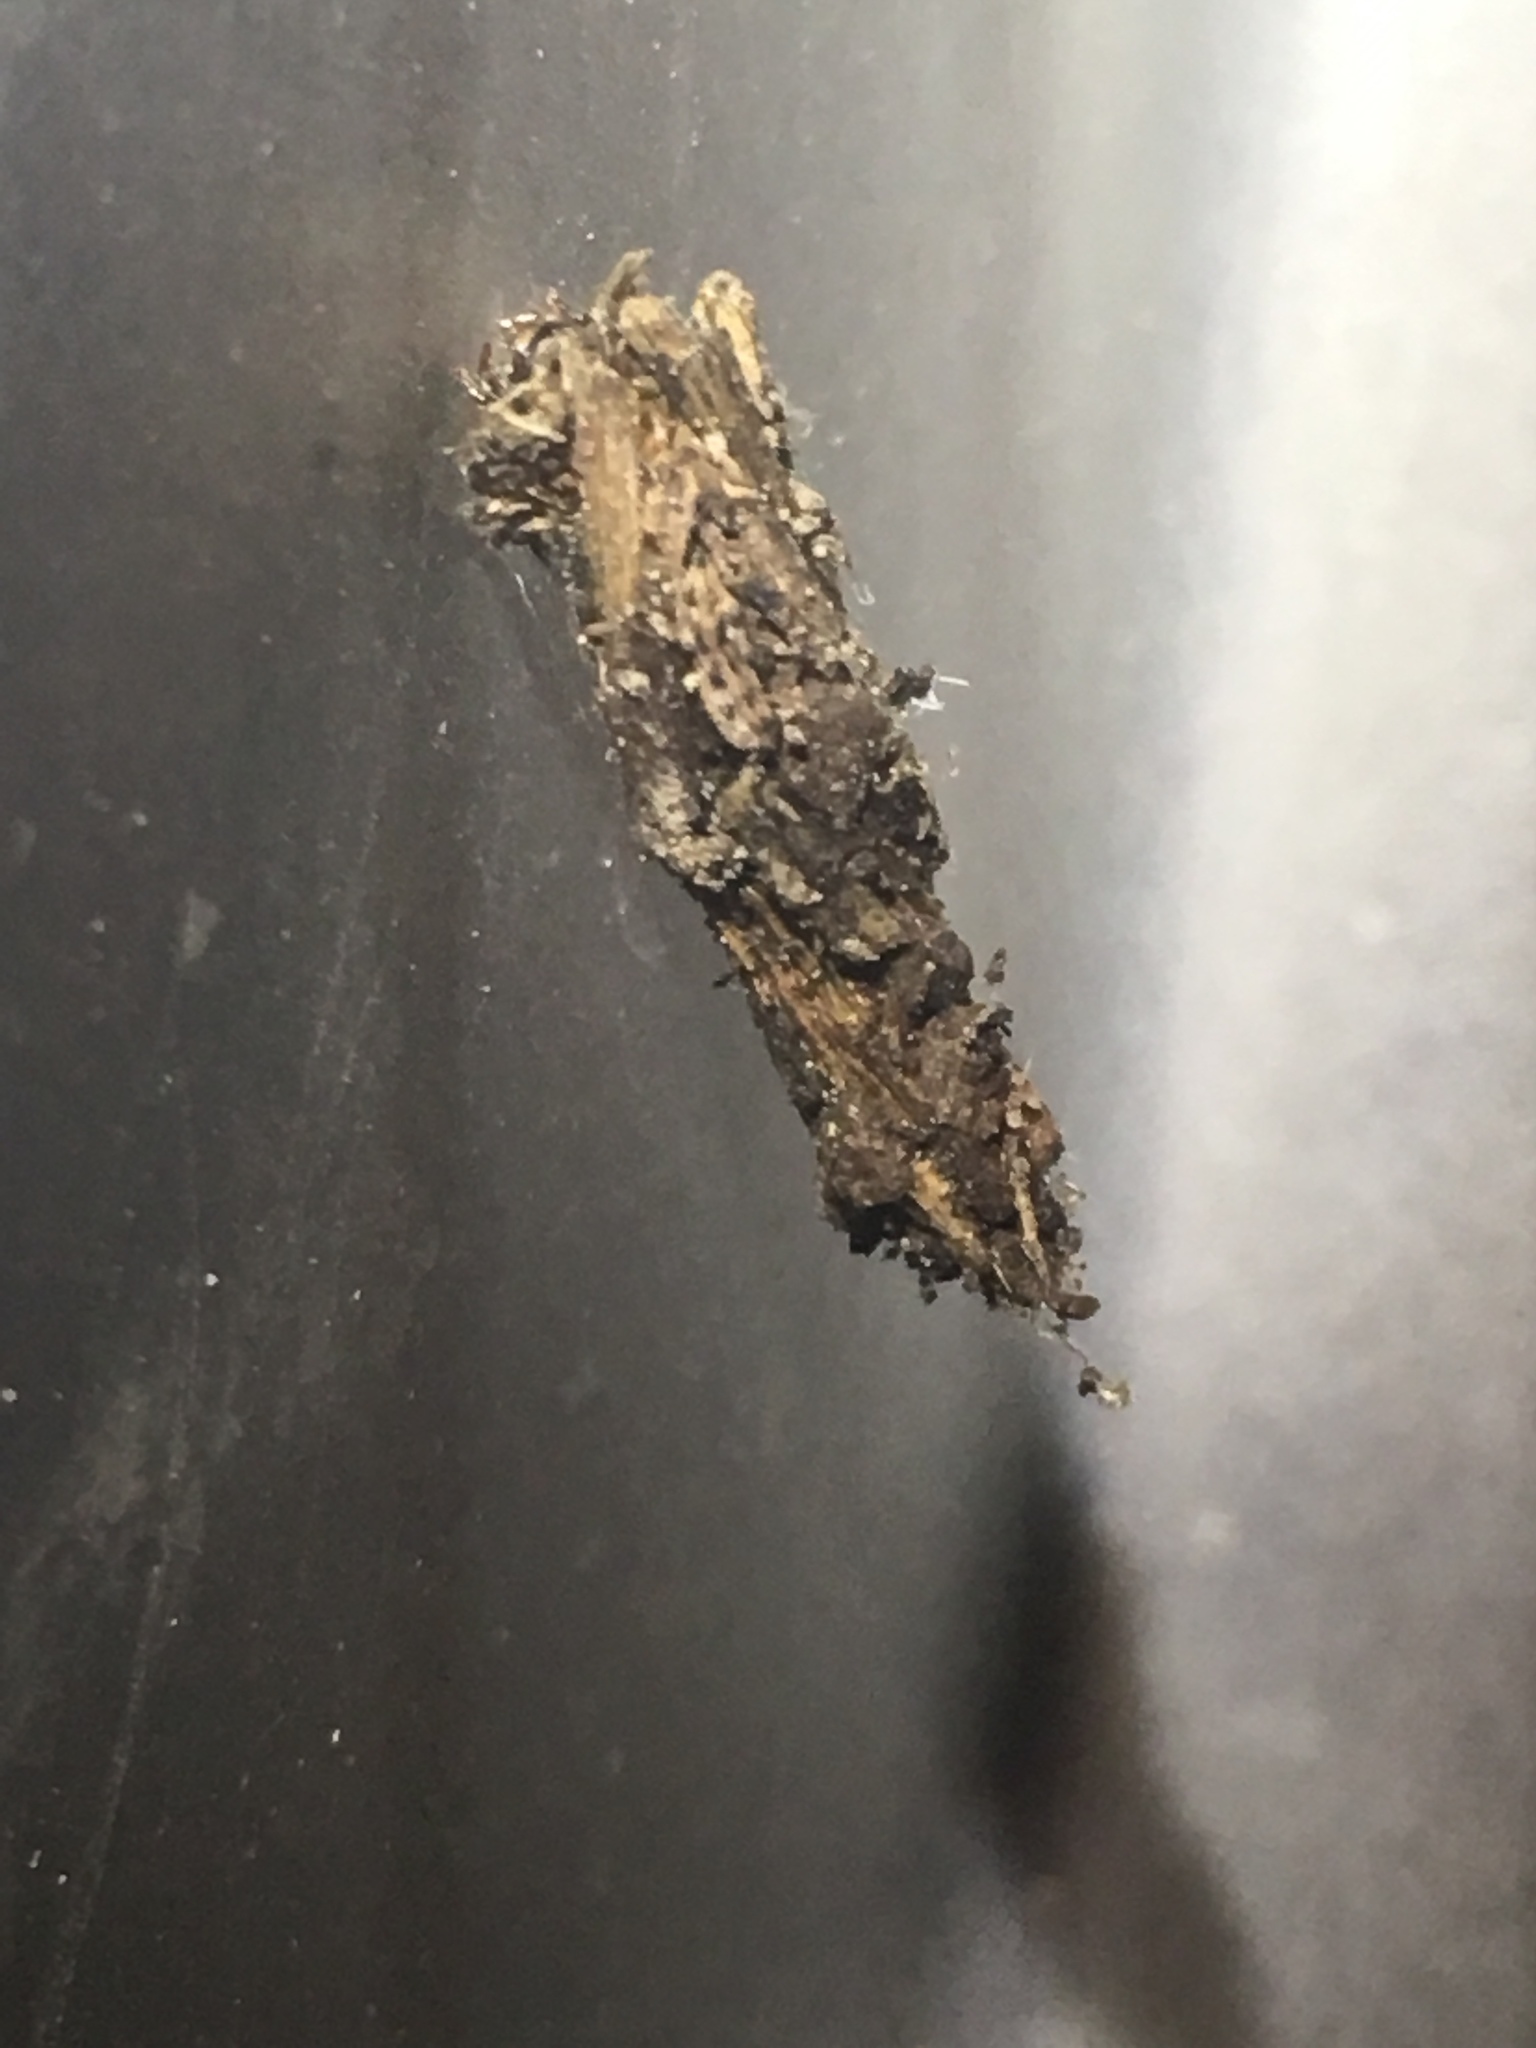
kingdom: Animalia
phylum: Arthropoda
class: Insecta
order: Lepidoptera
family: Psychidae
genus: Liothula
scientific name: Liothula omnivora
